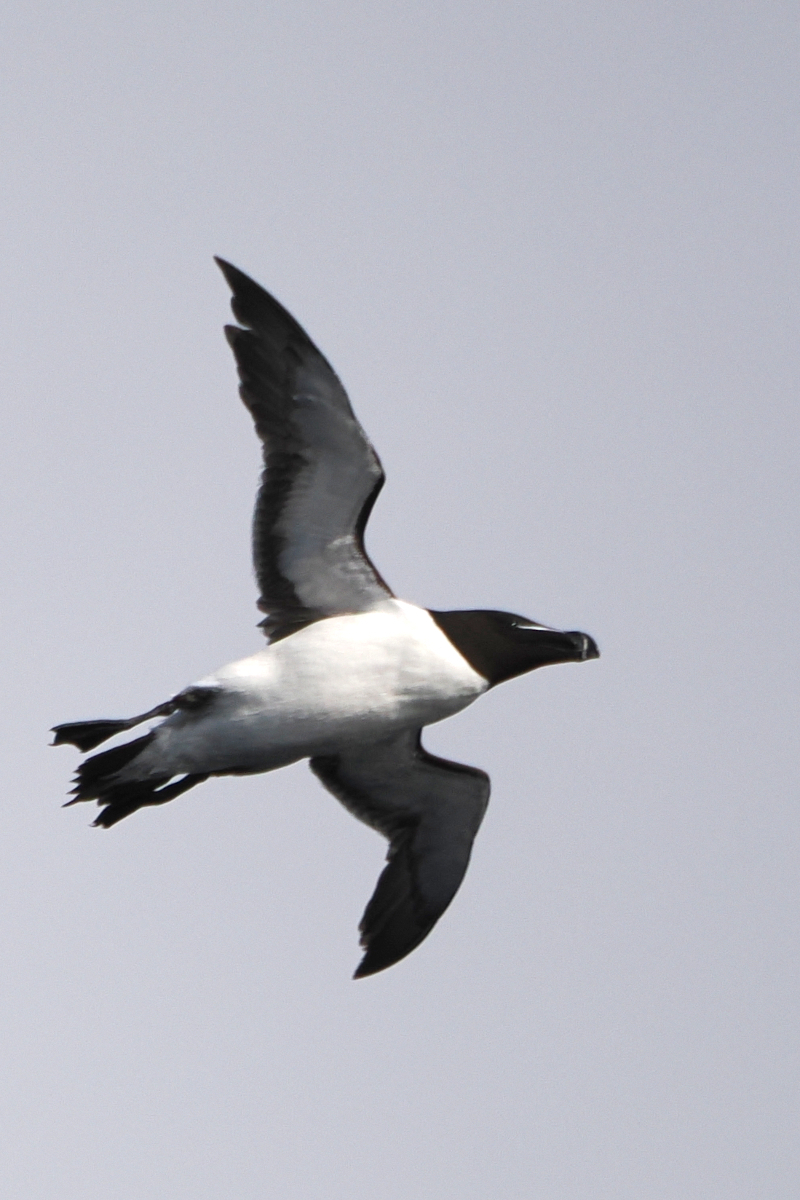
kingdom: Animalia
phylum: Chordata
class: Aves
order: Charadriiformes
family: Alcidae
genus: Alca
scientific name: Alca torda
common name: Razorbill
